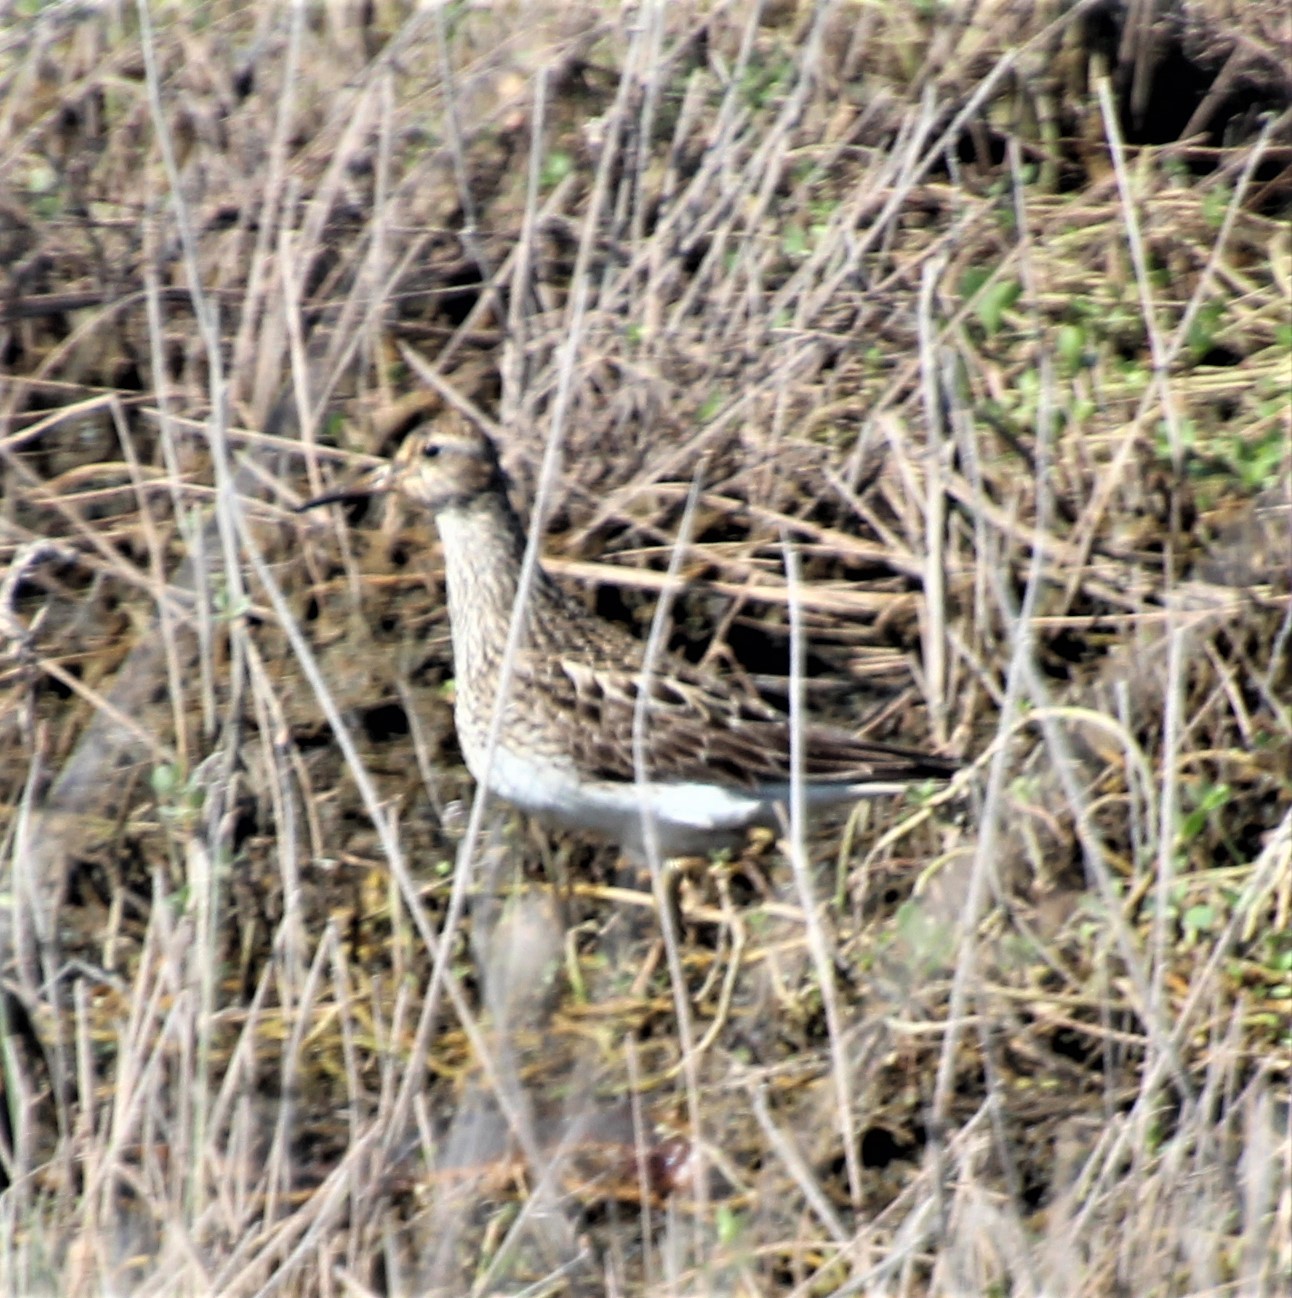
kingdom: Animalia
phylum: Chordata
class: Aves
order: Charadriiformes
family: Scolopacidae
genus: Calidris
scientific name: Calidris melanotos
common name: Pectoral sandpiper
